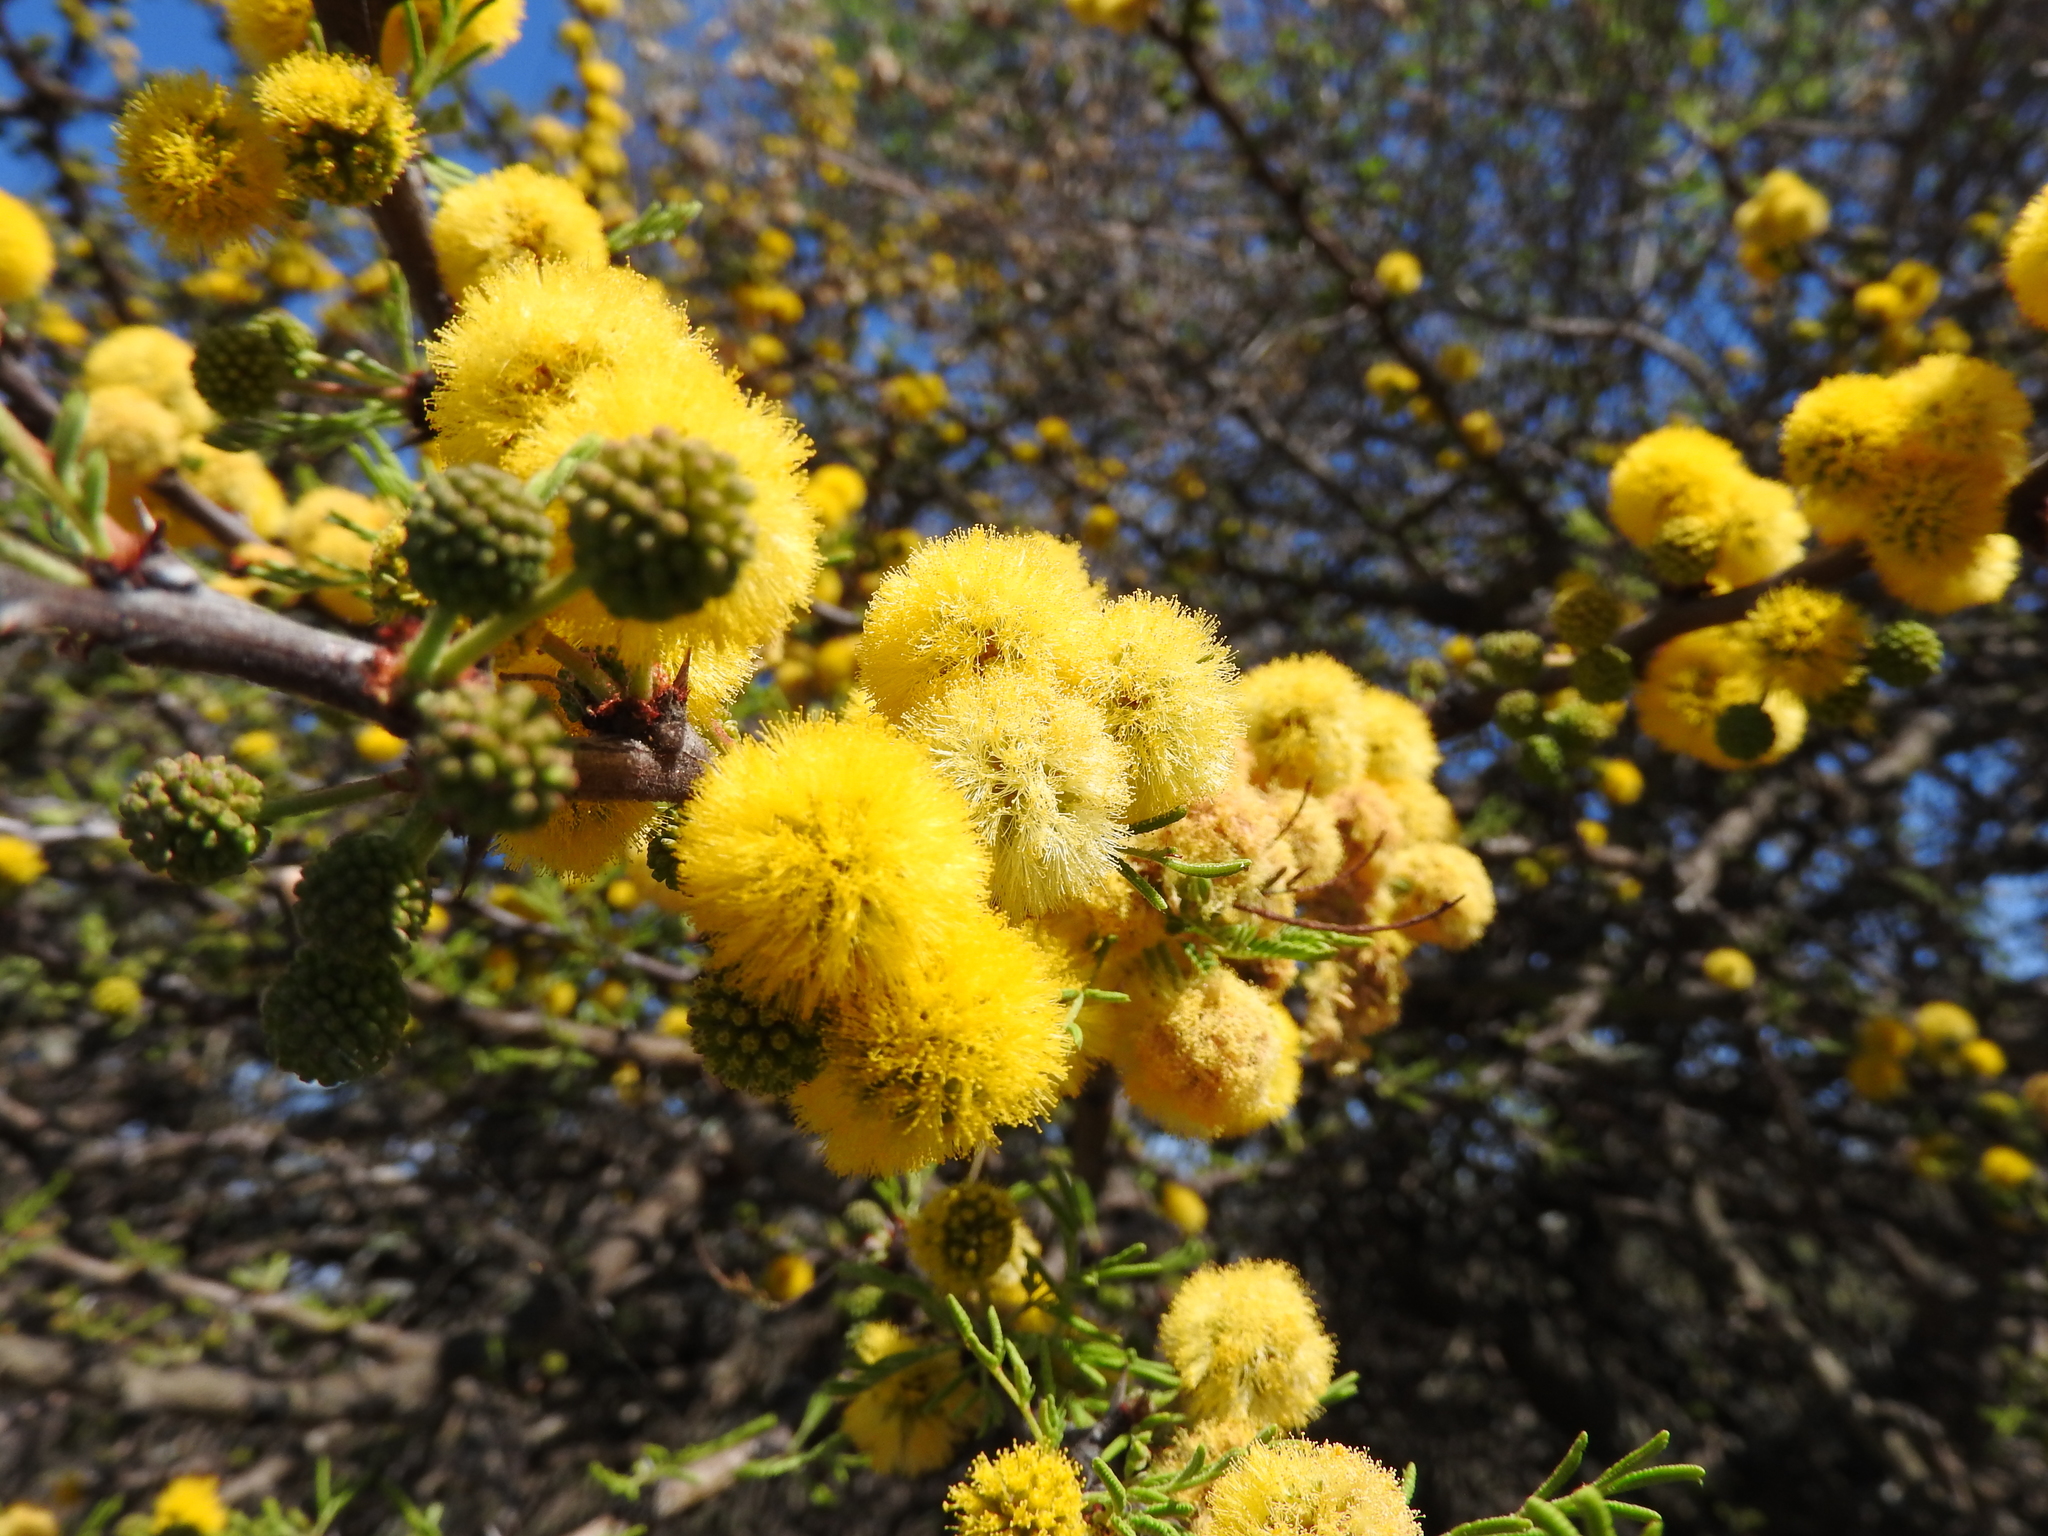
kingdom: Plantae
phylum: Tracheophyta
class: Magnoliopsida
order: Fabales
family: Fabaceae
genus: Vachellia
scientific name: Vachellia farnesiana
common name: Sweet acacia
